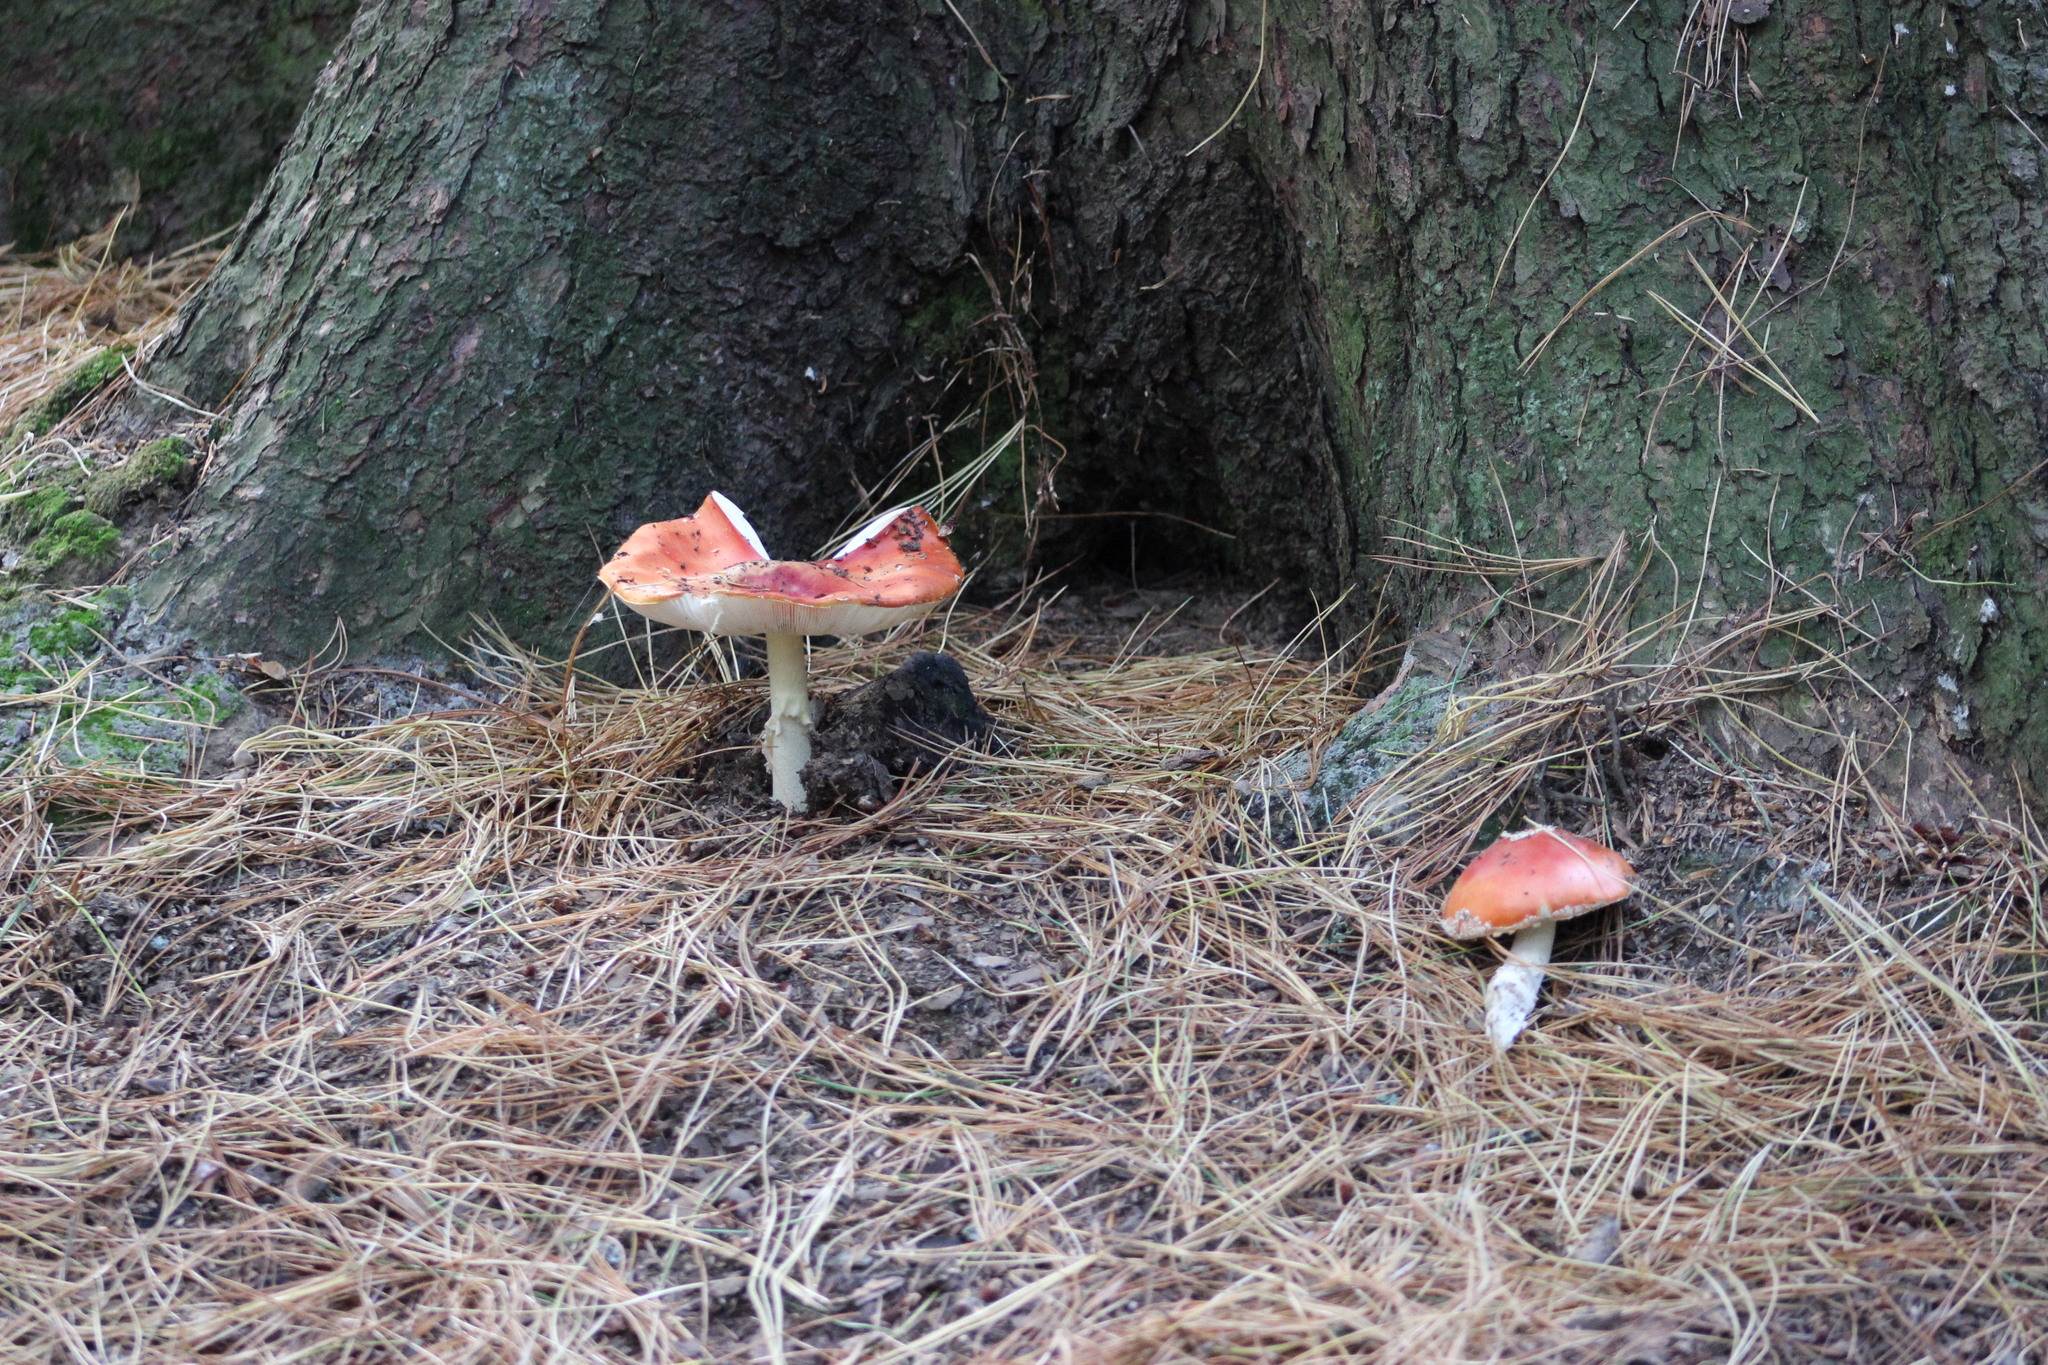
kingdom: Fungi
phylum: Basidiomycota
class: Agaricomycetes
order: Agaricales
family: Amanitaceae
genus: Amanita
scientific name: Amanita muscaria
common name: Fly agaric
